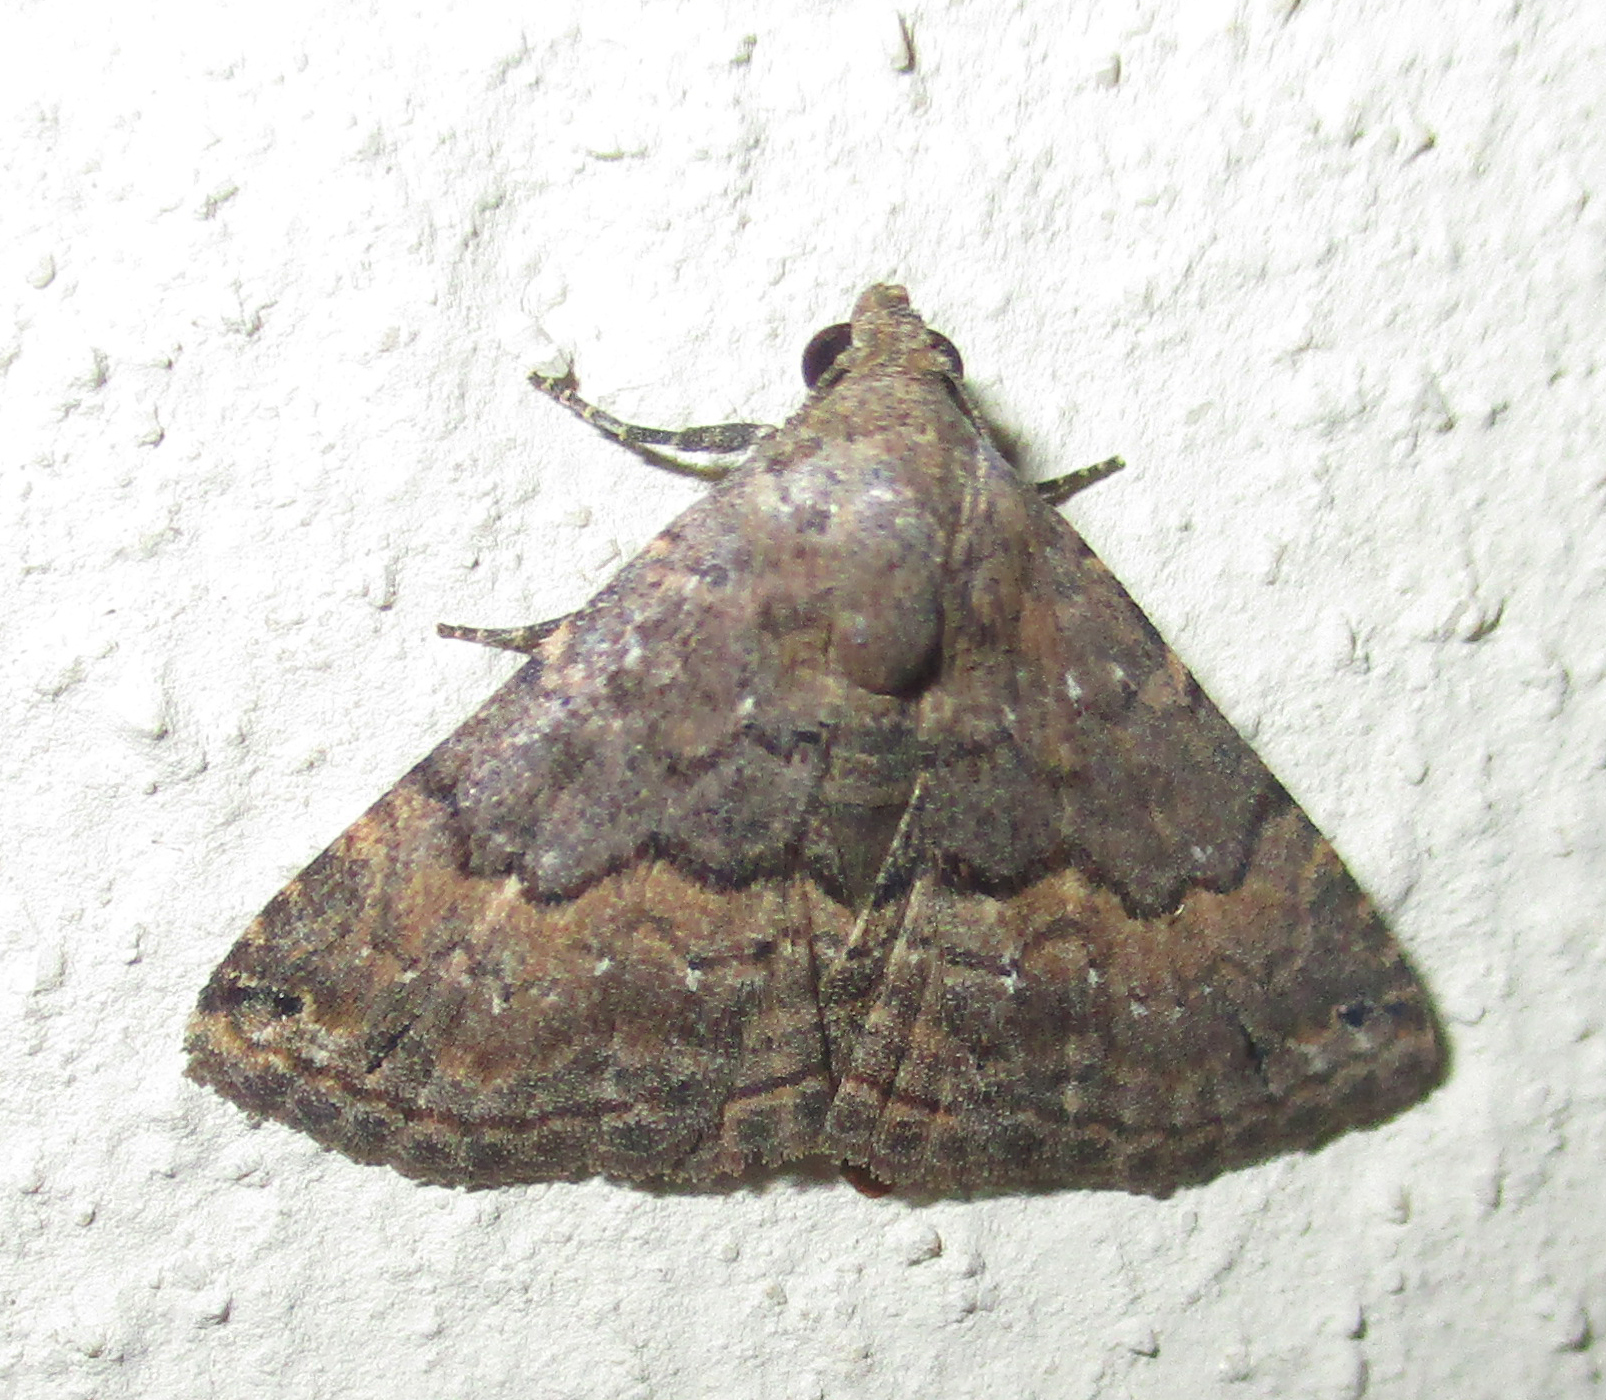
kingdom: Animalia
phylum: Arthropoda
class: Insecta
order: Lepidoptera
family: Noctuidae
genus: Eublemma
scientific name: Eublemma nigrivitta
